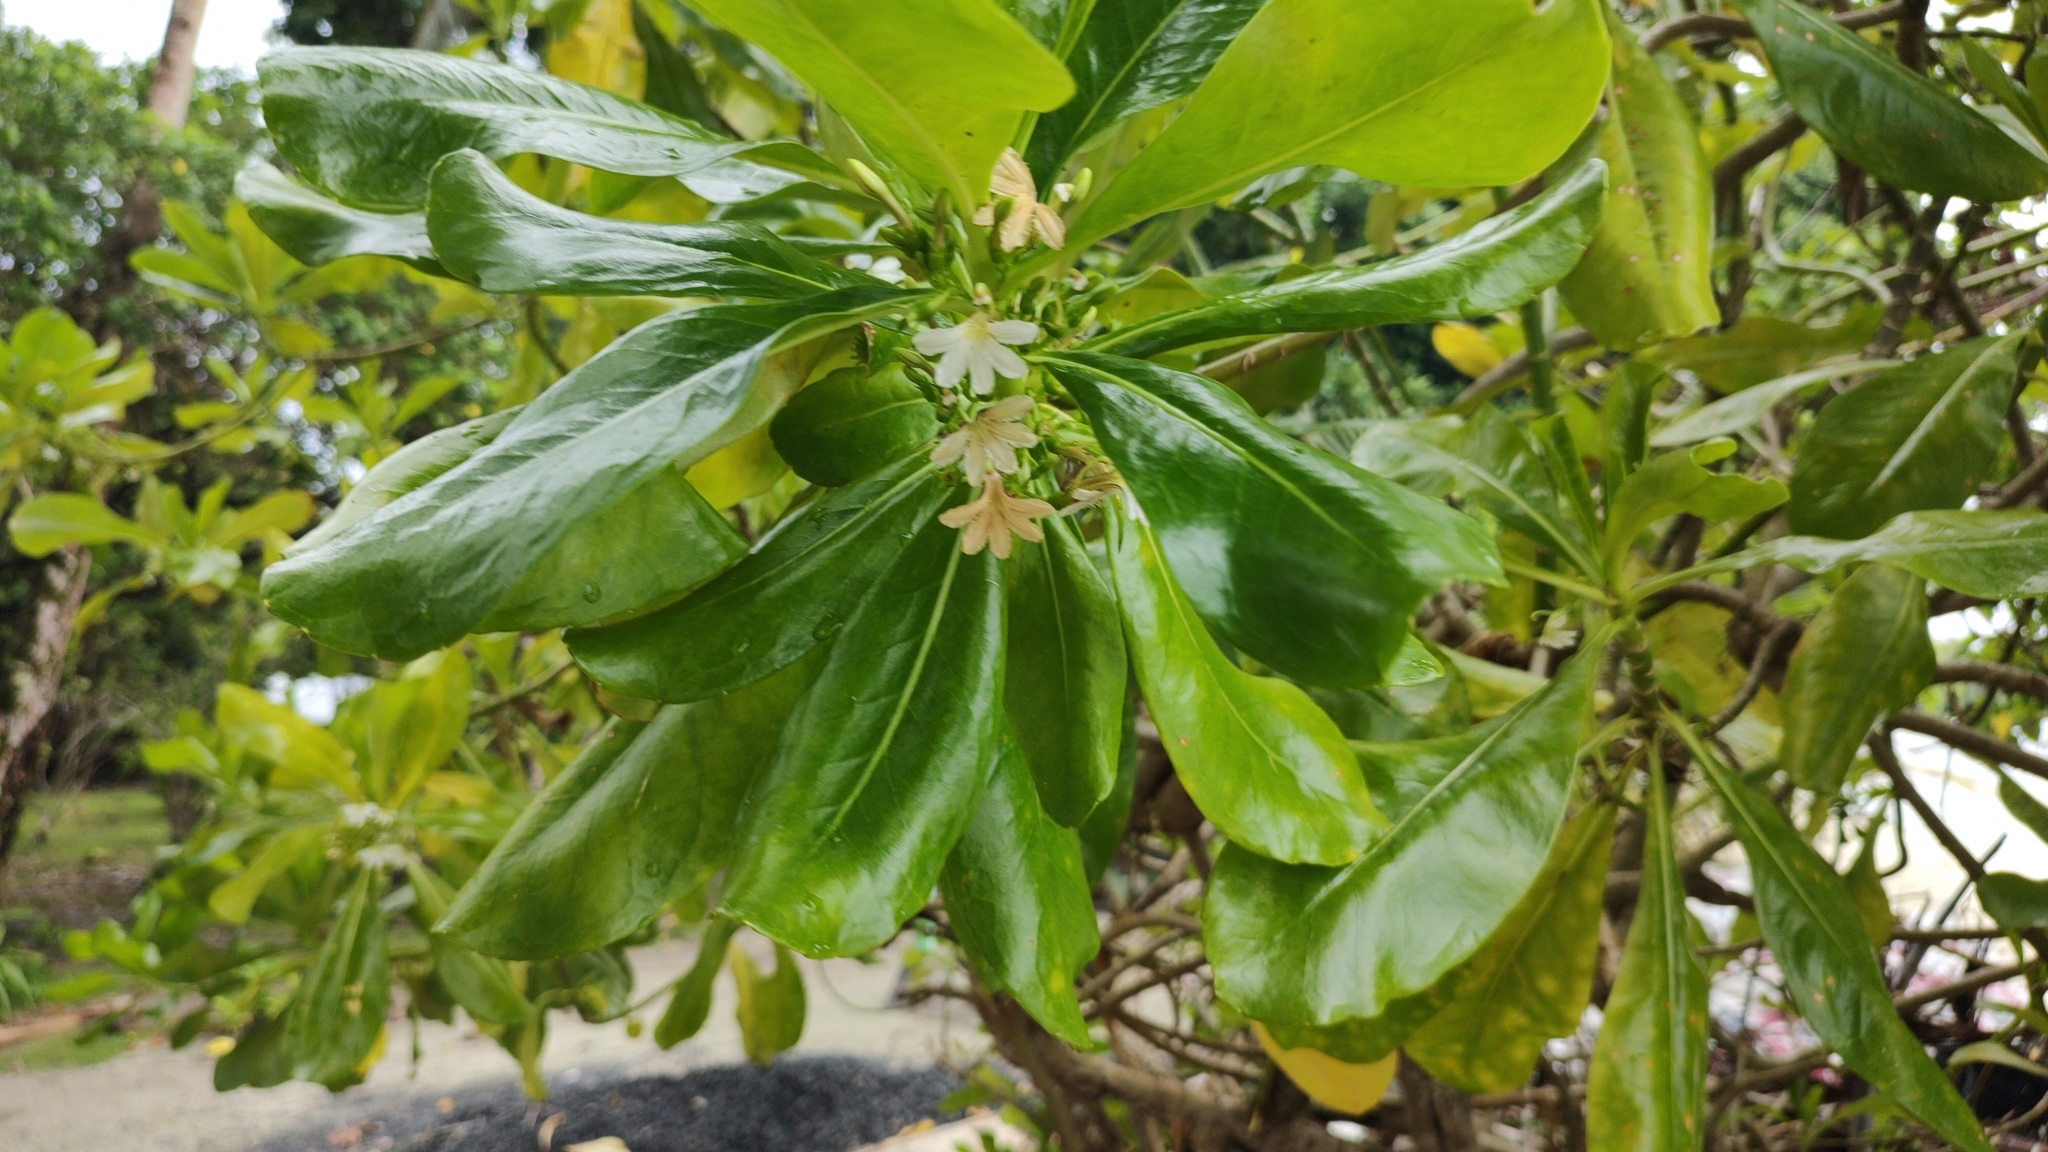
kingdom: Plantae
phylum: Tracheophyta
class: Magnoliopsida
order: Asterales
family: Goodeniaceae
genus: Scaevola
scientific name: Scaevola taccada
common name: Sea lettucetree
